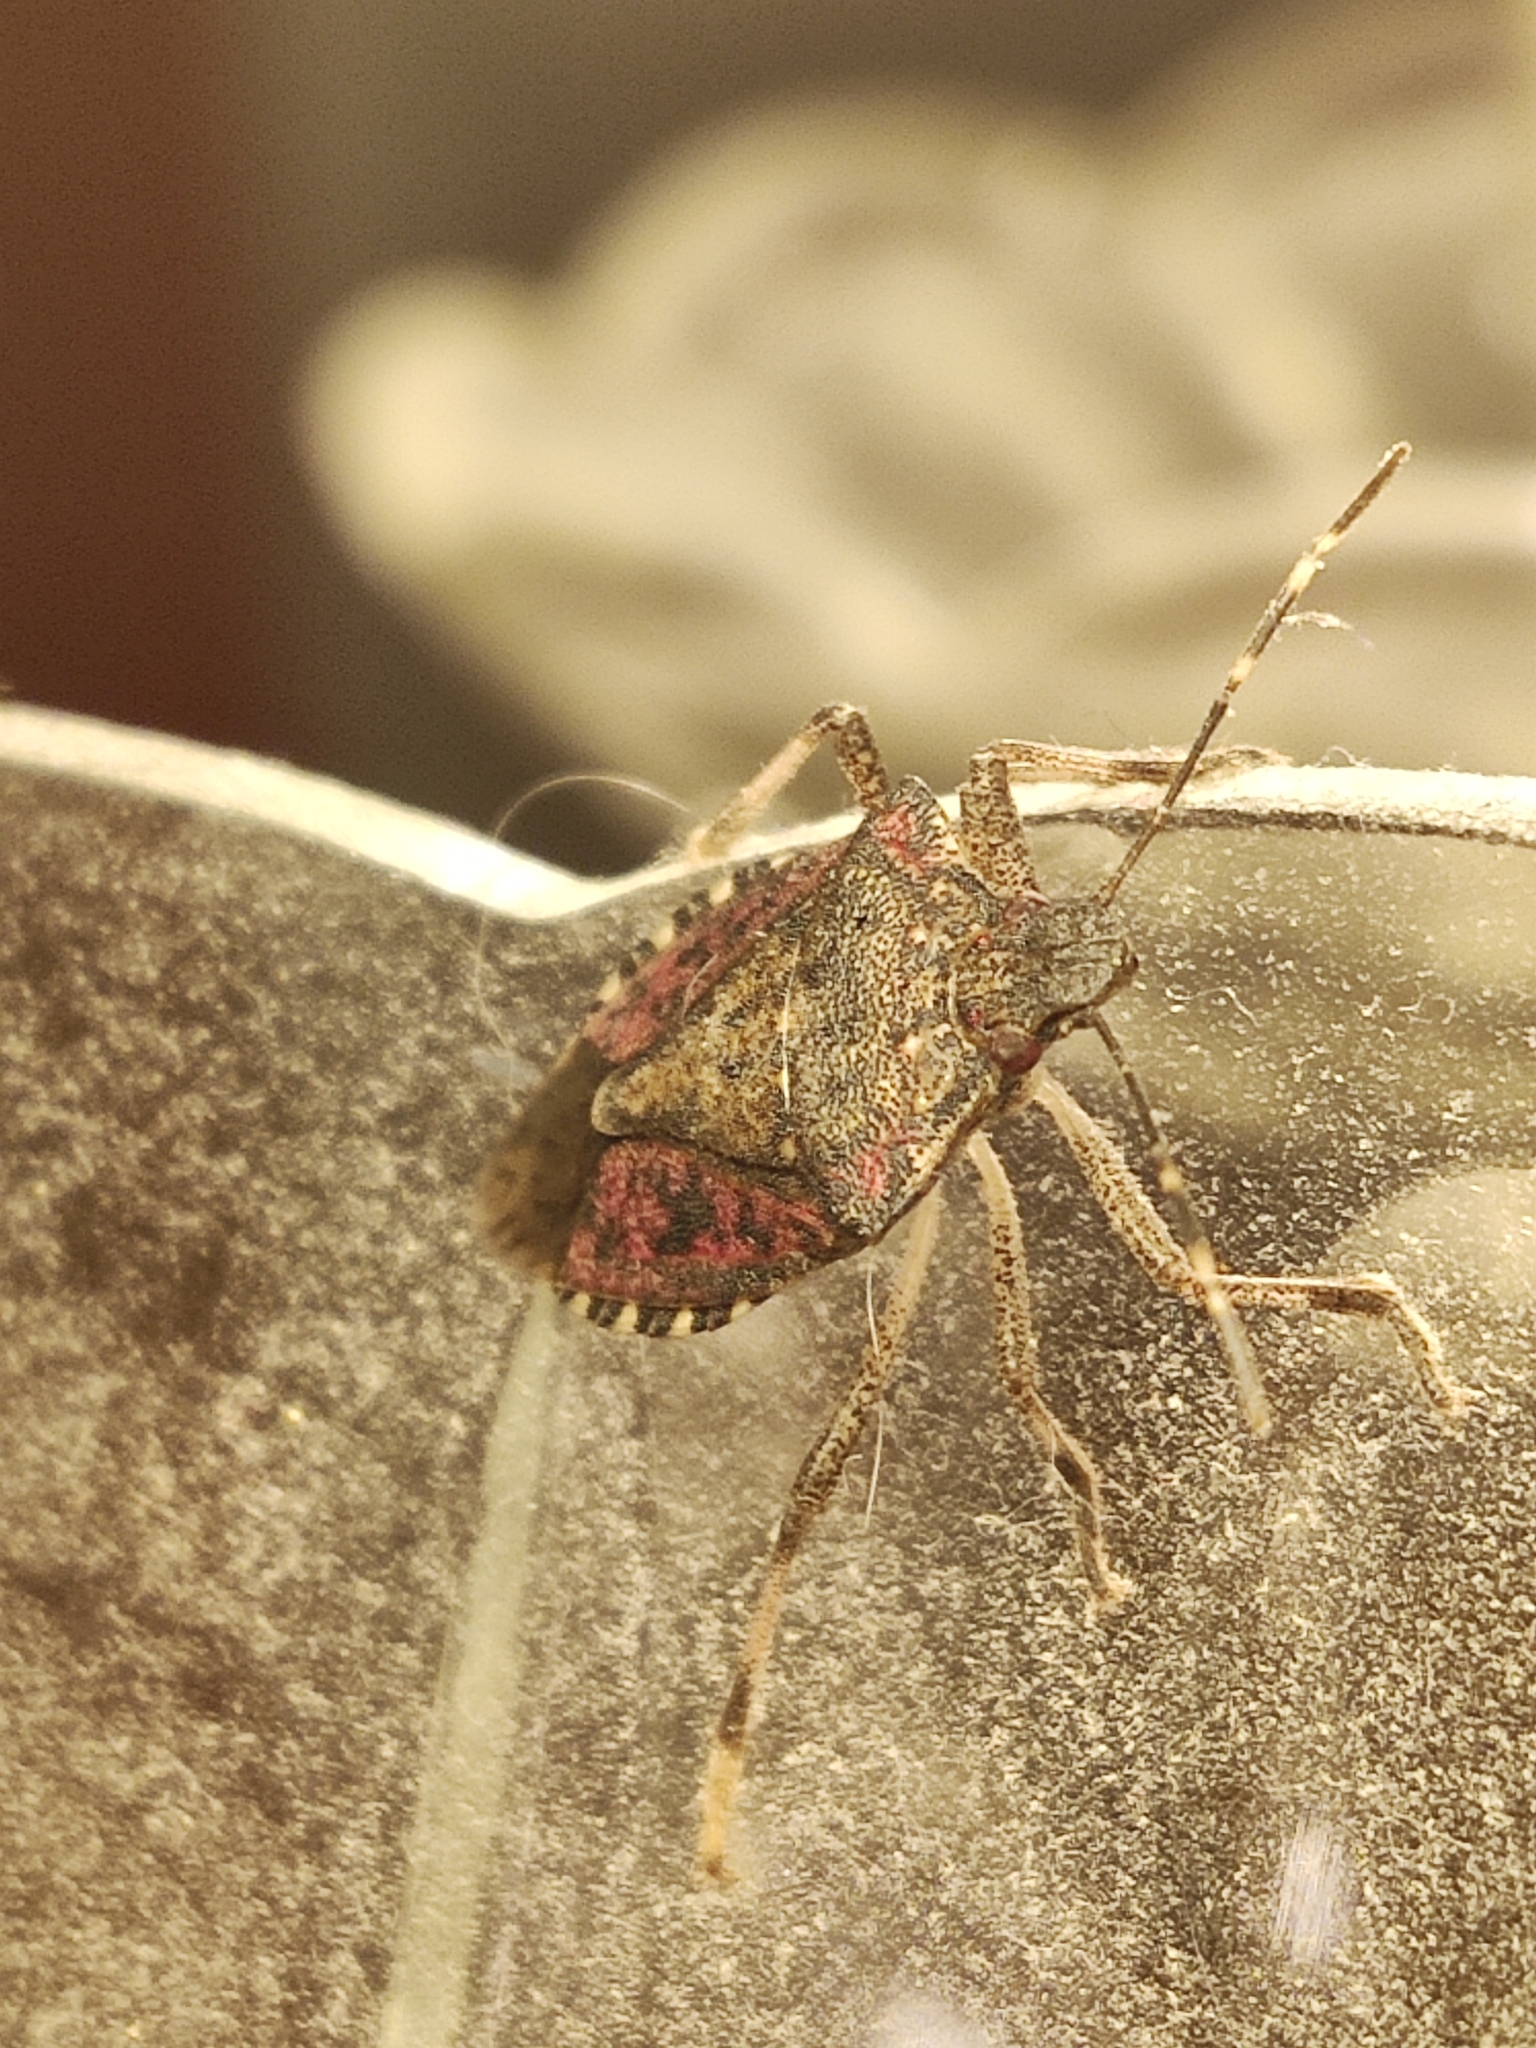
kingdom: Animalia
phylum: Arthropoda
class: Insecta
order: Hemiptera
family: Pentatomidae
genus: Halyomorpha
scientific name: Halyomorpha halys
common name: Brown marmorated stink bug
